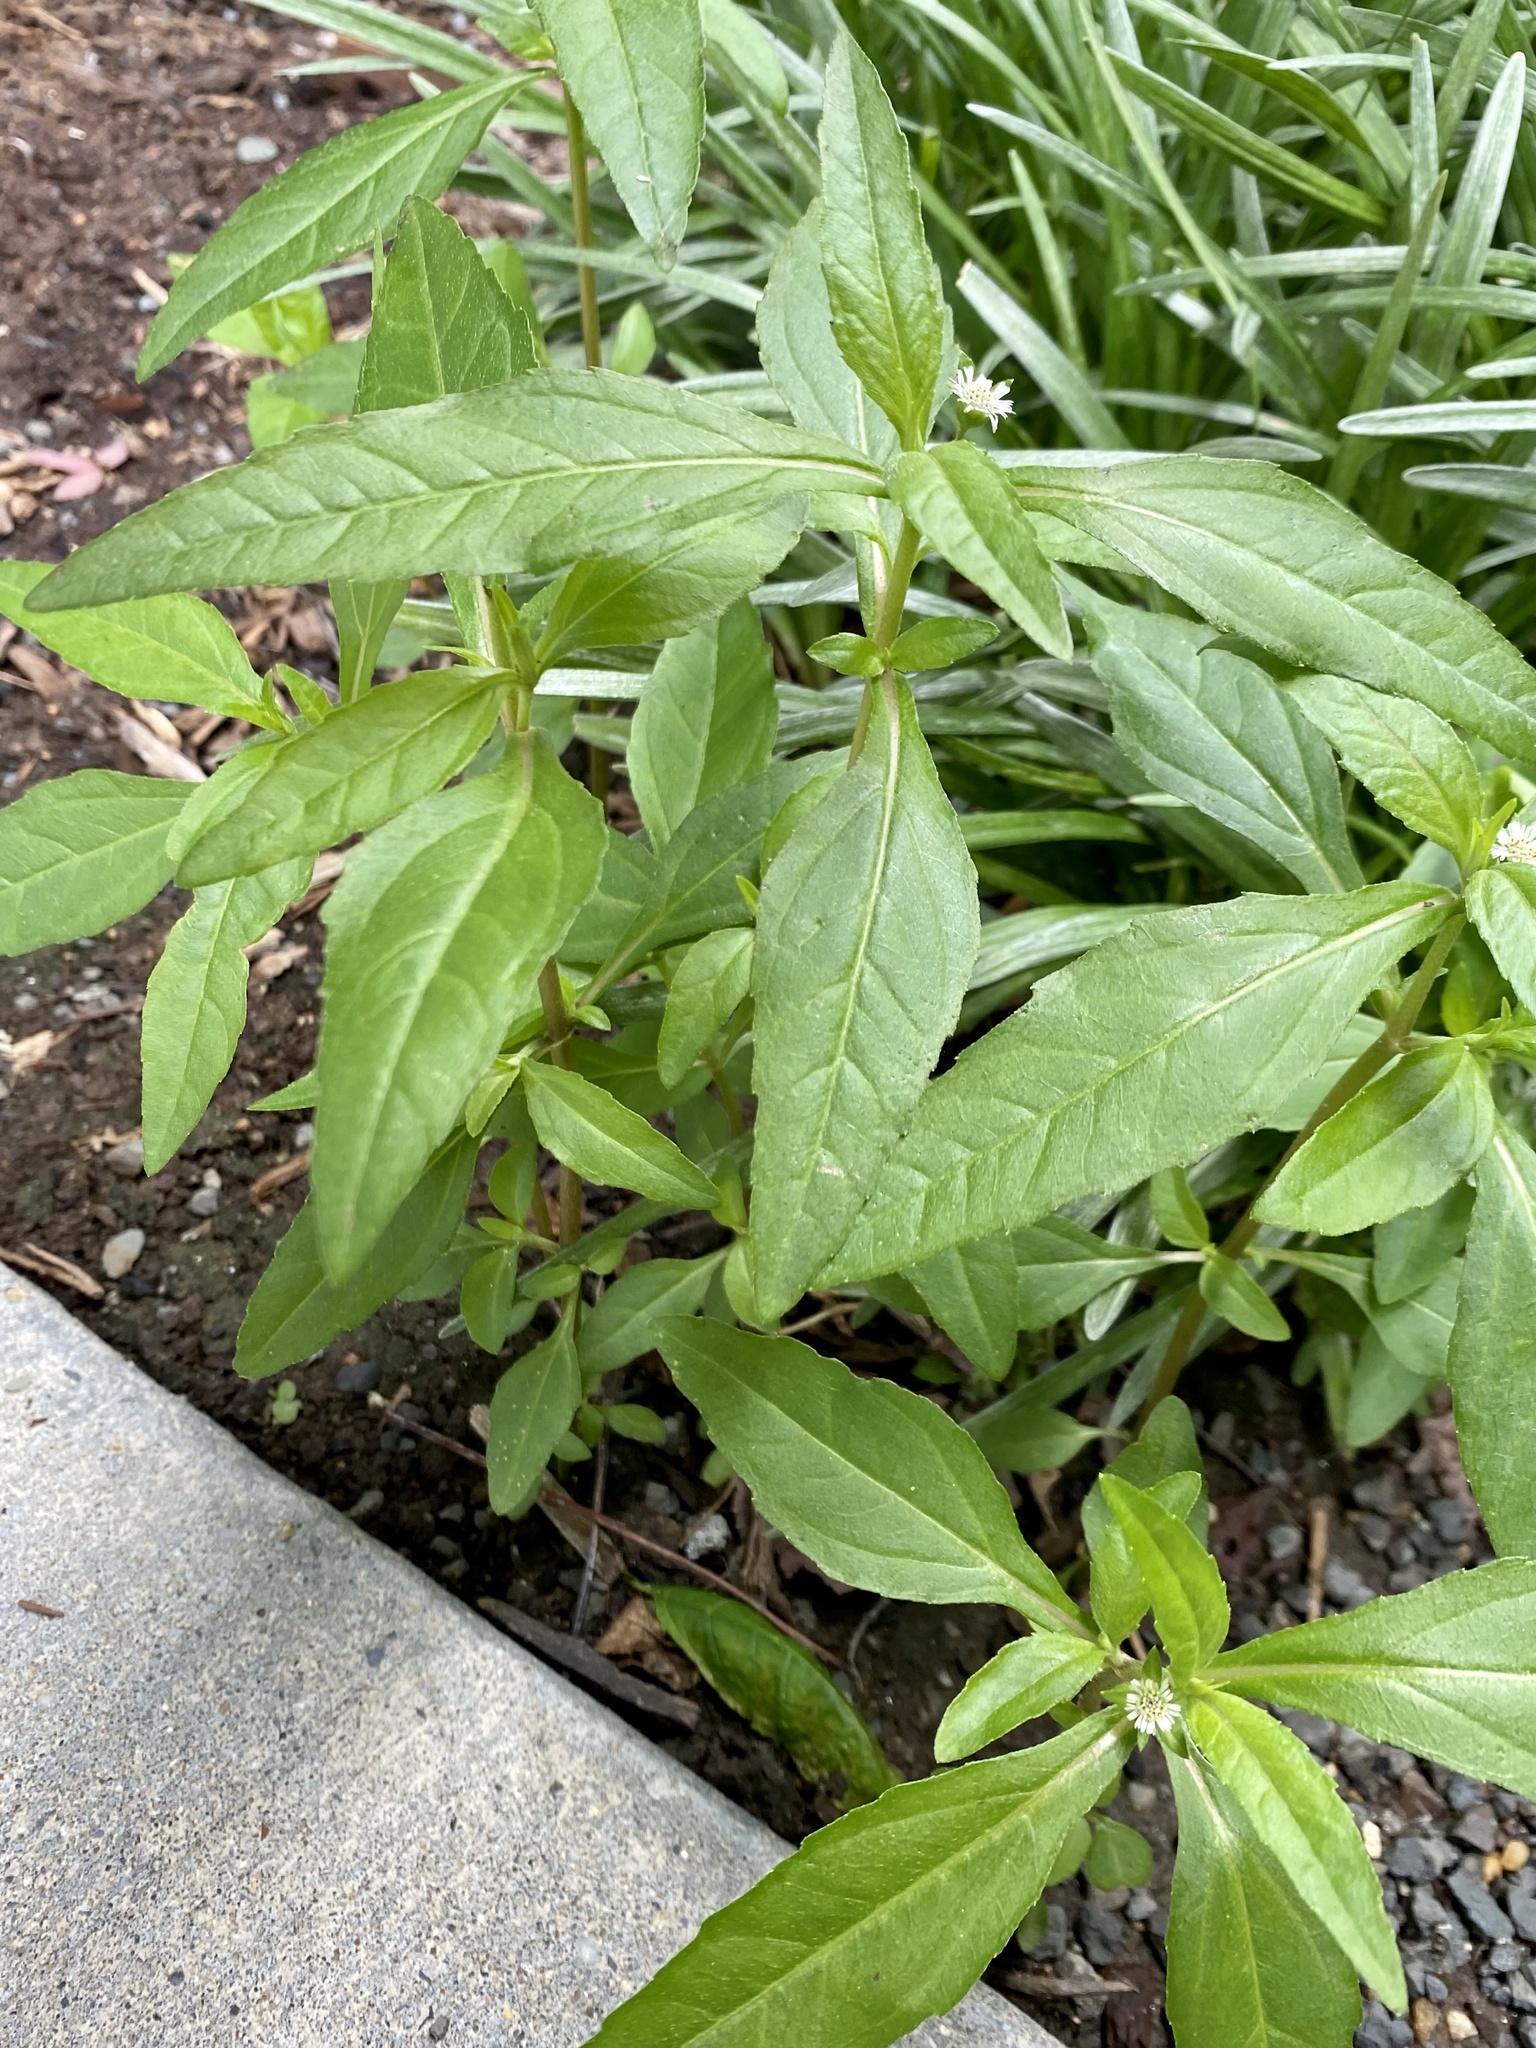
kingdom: Plantae
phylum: Tracheophyta
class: Magnoliopsida
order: Asterales
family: Asteraceae
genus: Eclipta
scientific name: Eclipta prostrata
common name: False daisy
